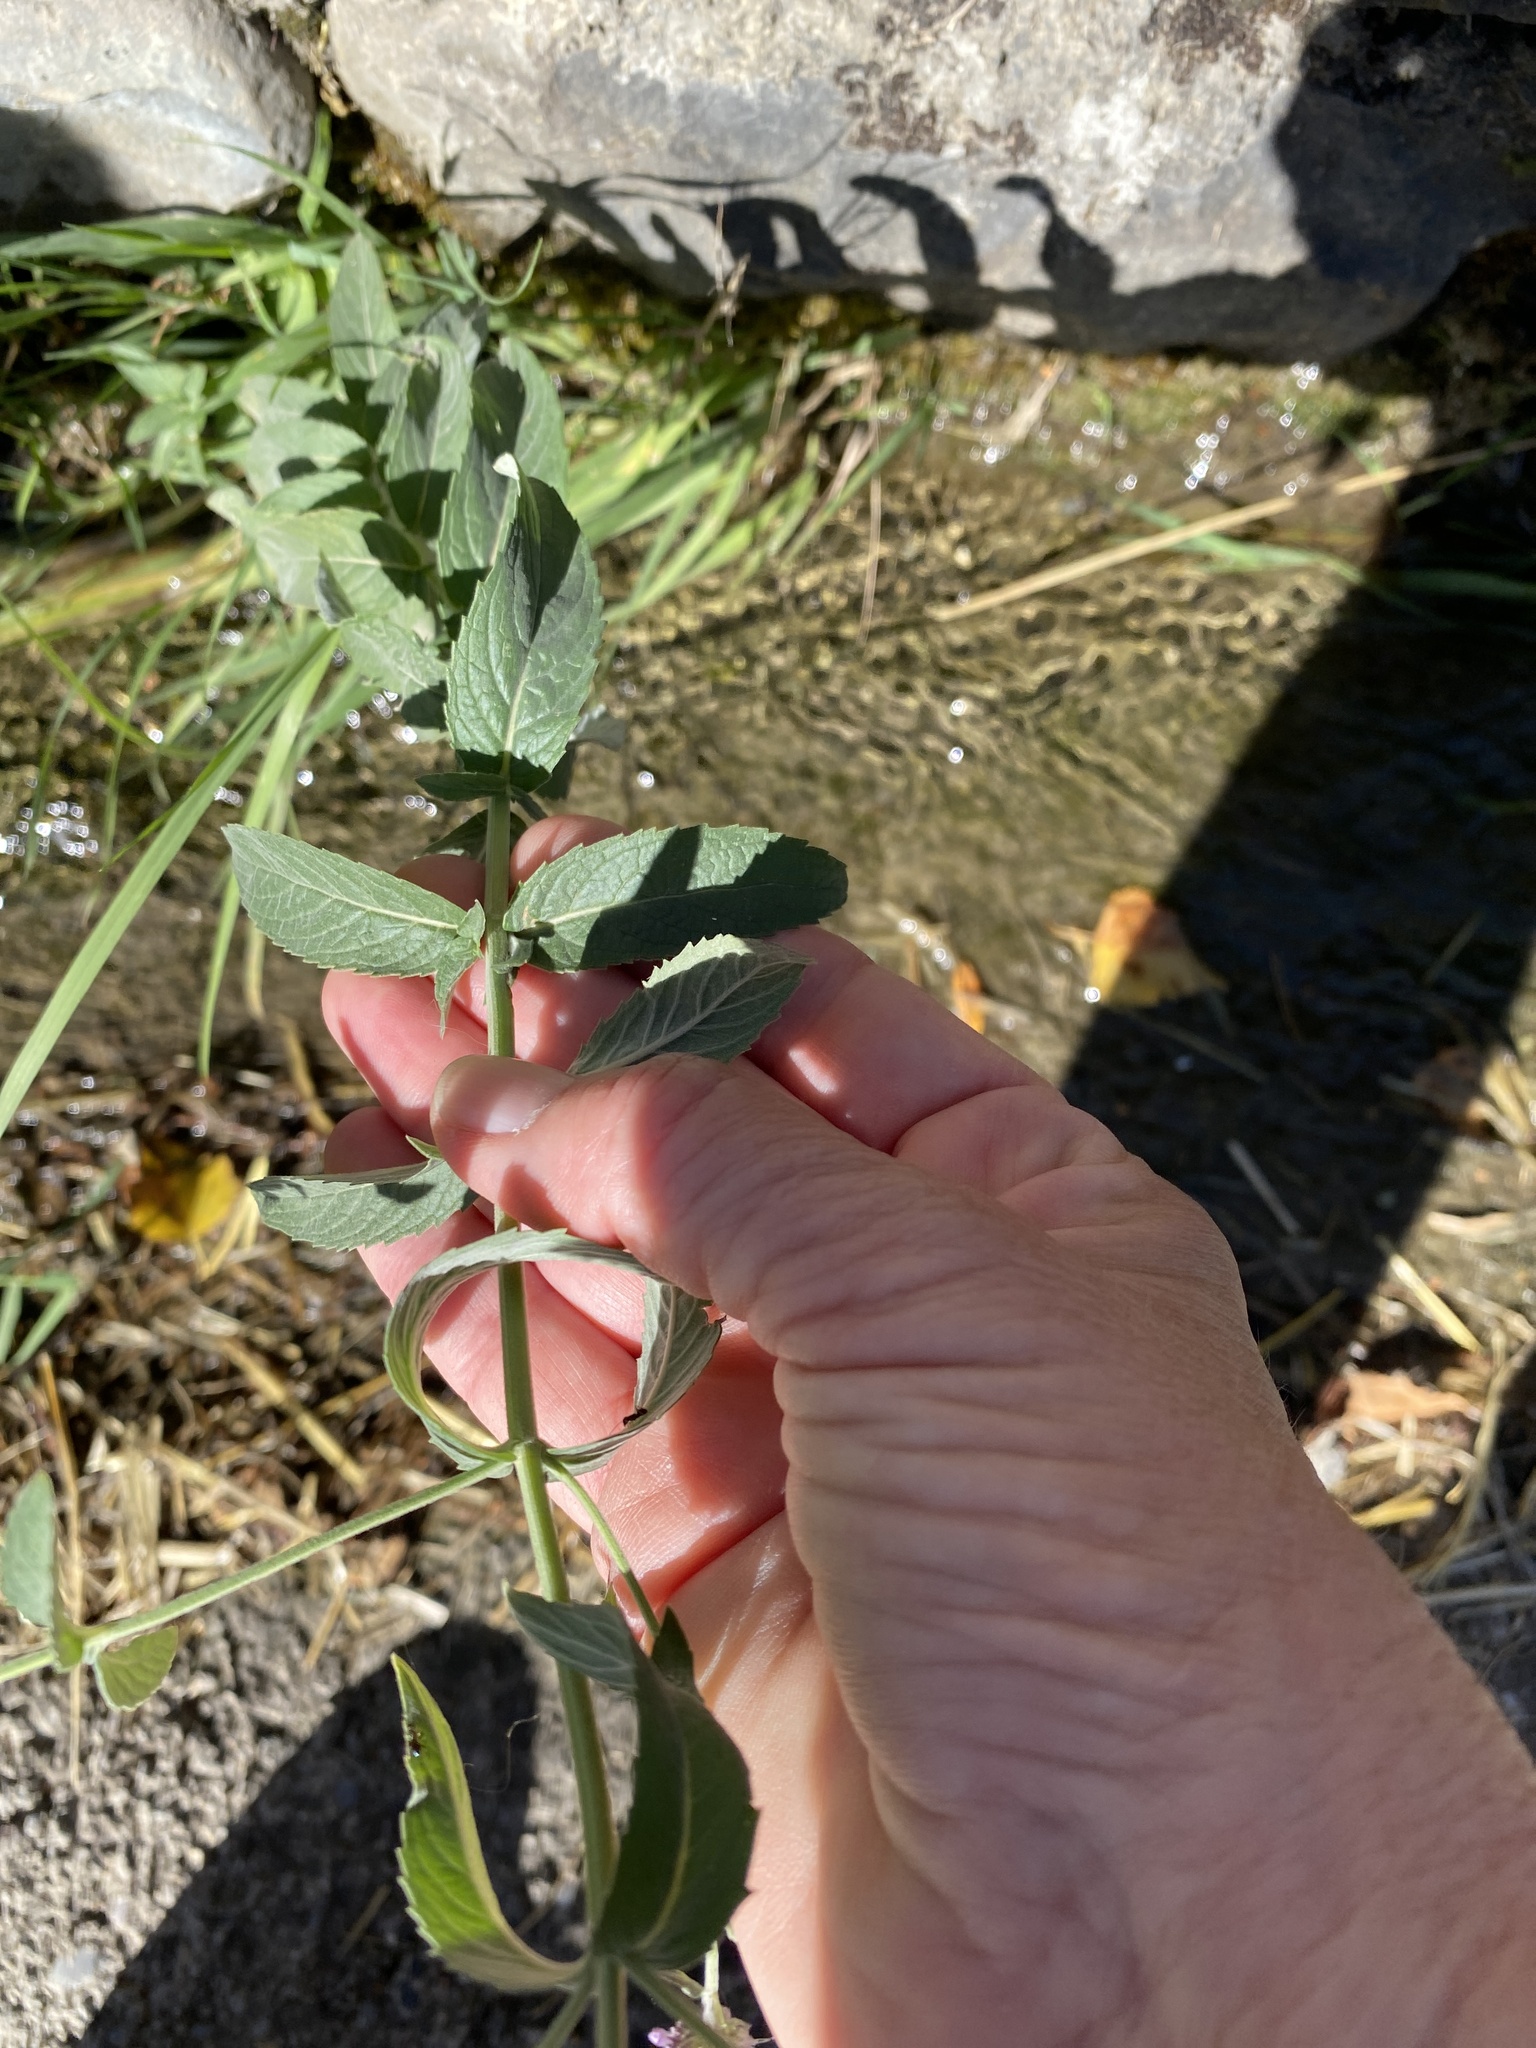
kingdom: Plantae
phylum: Tracheophyta
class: Magnoliopsida
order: Lamiales
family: Lamiaceae
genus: Mentha
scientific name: Mentha longifolia
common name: Horse mint
